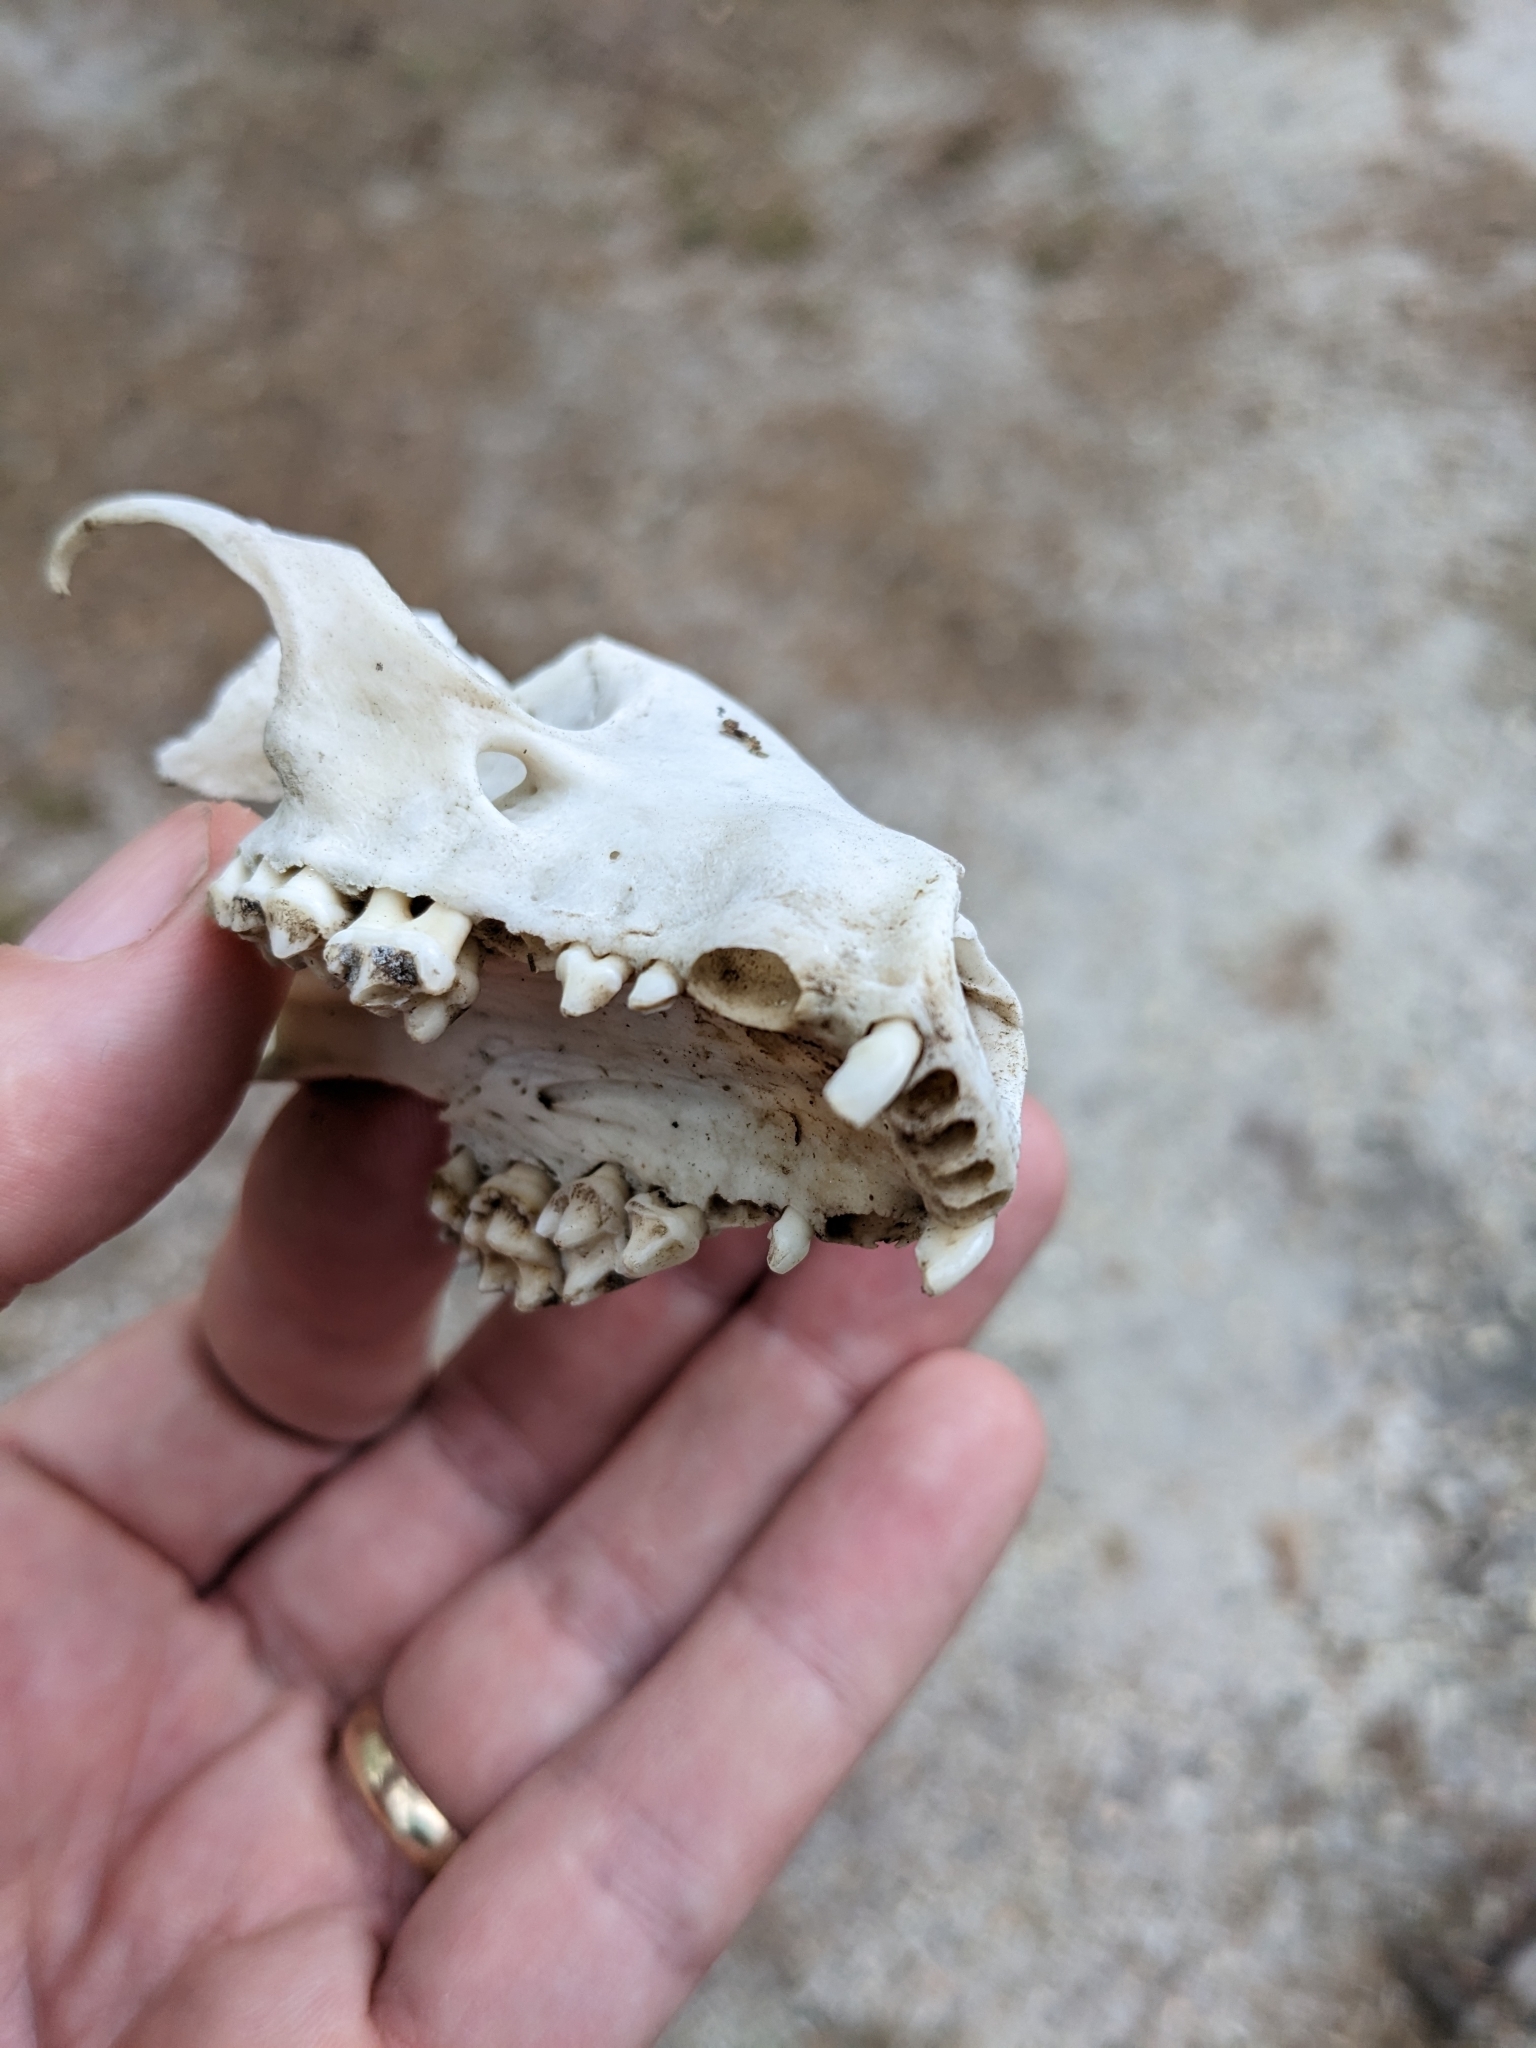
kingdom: Animalia
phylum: Chordata
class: Mammalia
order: Carnivora
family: Procyonidae
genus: Procyon
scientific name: Procyon lotor
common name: Raccoon
